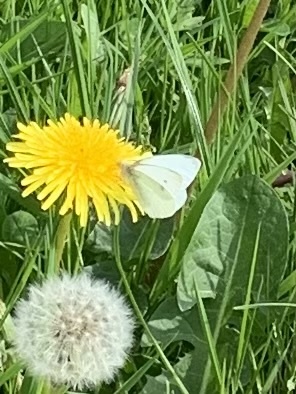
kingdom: Animalia
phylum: Arthropoda
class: Insecta
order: Lepidoptera
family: Pieridae
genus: Pieris
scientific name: Pieris rapae
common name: Small white
